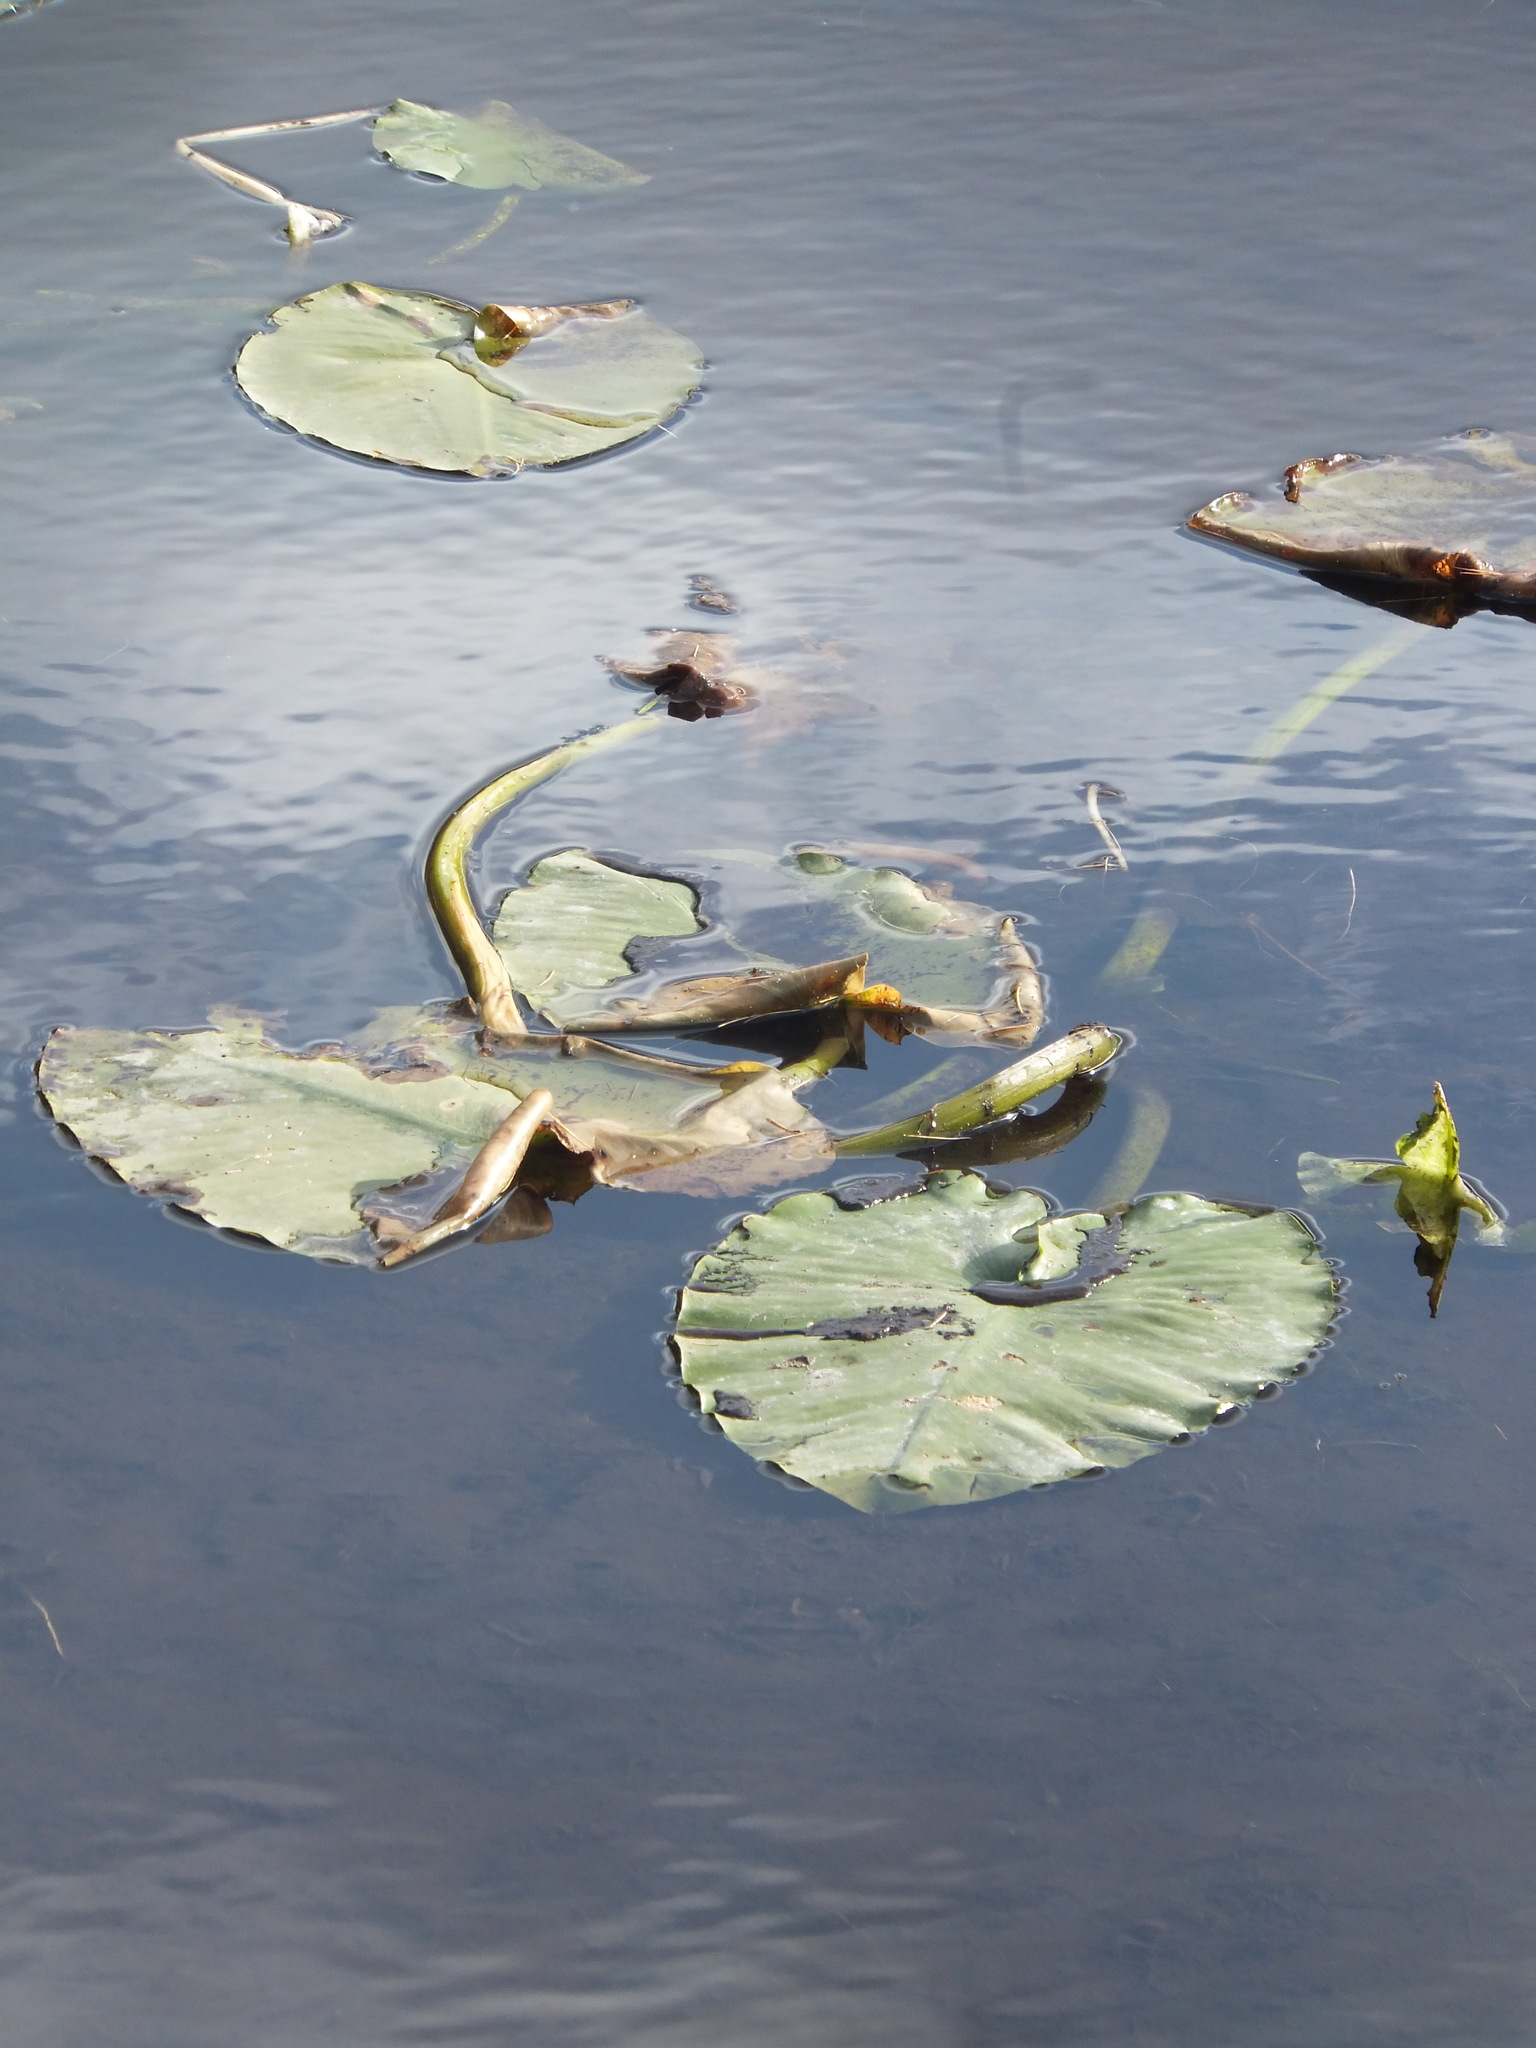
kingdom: Plantae
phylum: Tracheophyta
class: Magnoliopsida
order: Nymphaeales
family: Nymphaeaceae
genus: Nuphar
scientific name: Nuphar polysepala
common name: Rocky mountain cow-lily
